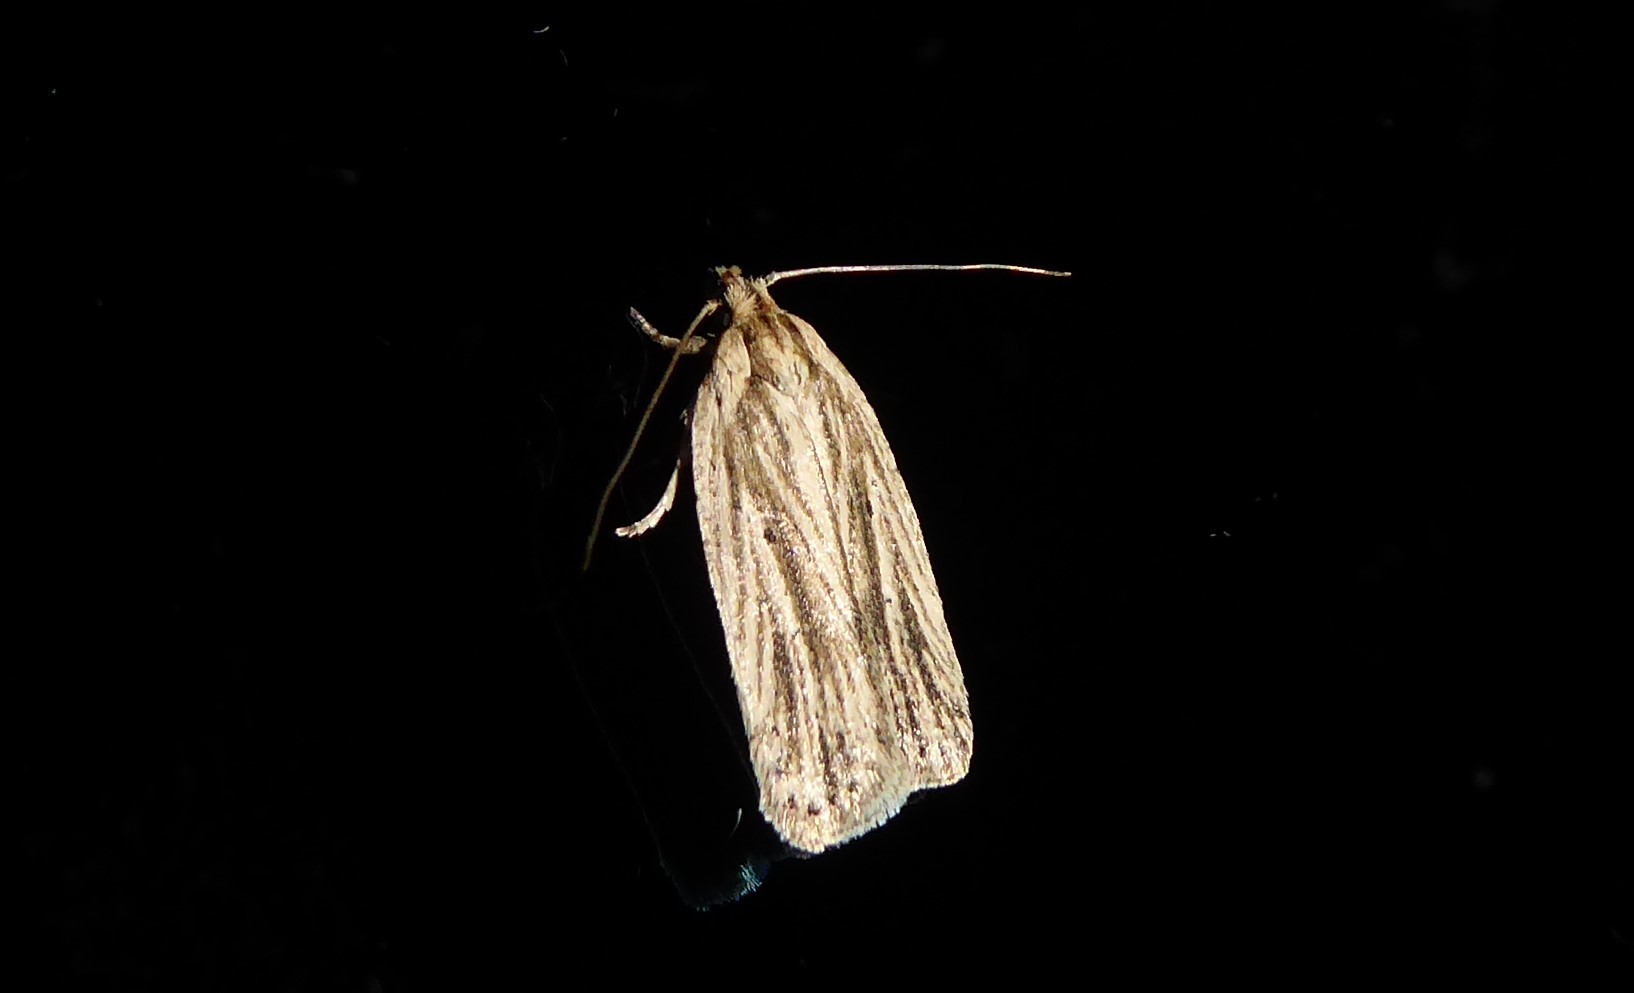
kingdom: Animalia
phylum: Arthropoda
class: Insecta
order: Lepidoptera
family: Depressariidae
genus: Agonopterix
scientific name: Agonopterix
